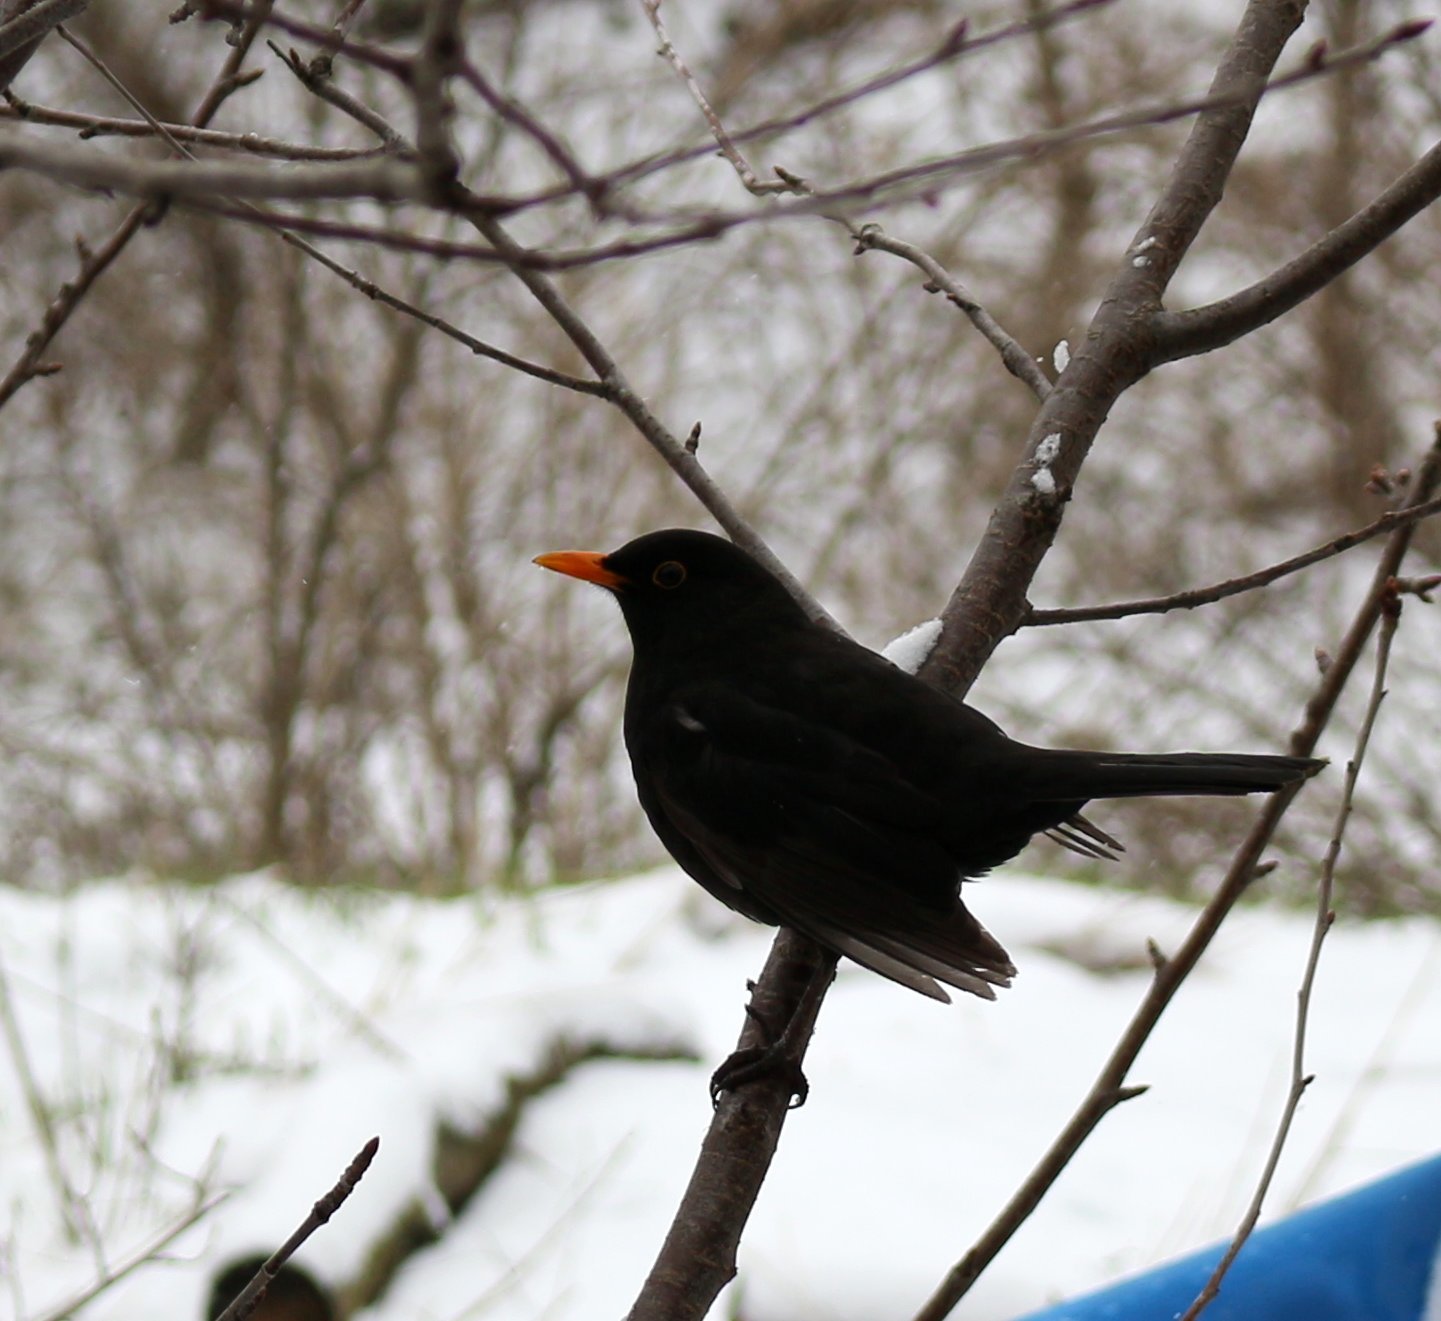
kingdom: Animalia
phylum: Chordata
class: Aves
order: Passeriformes
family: Turdidae
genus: Turdus
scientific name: Turdus merula
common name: Common blackbird
